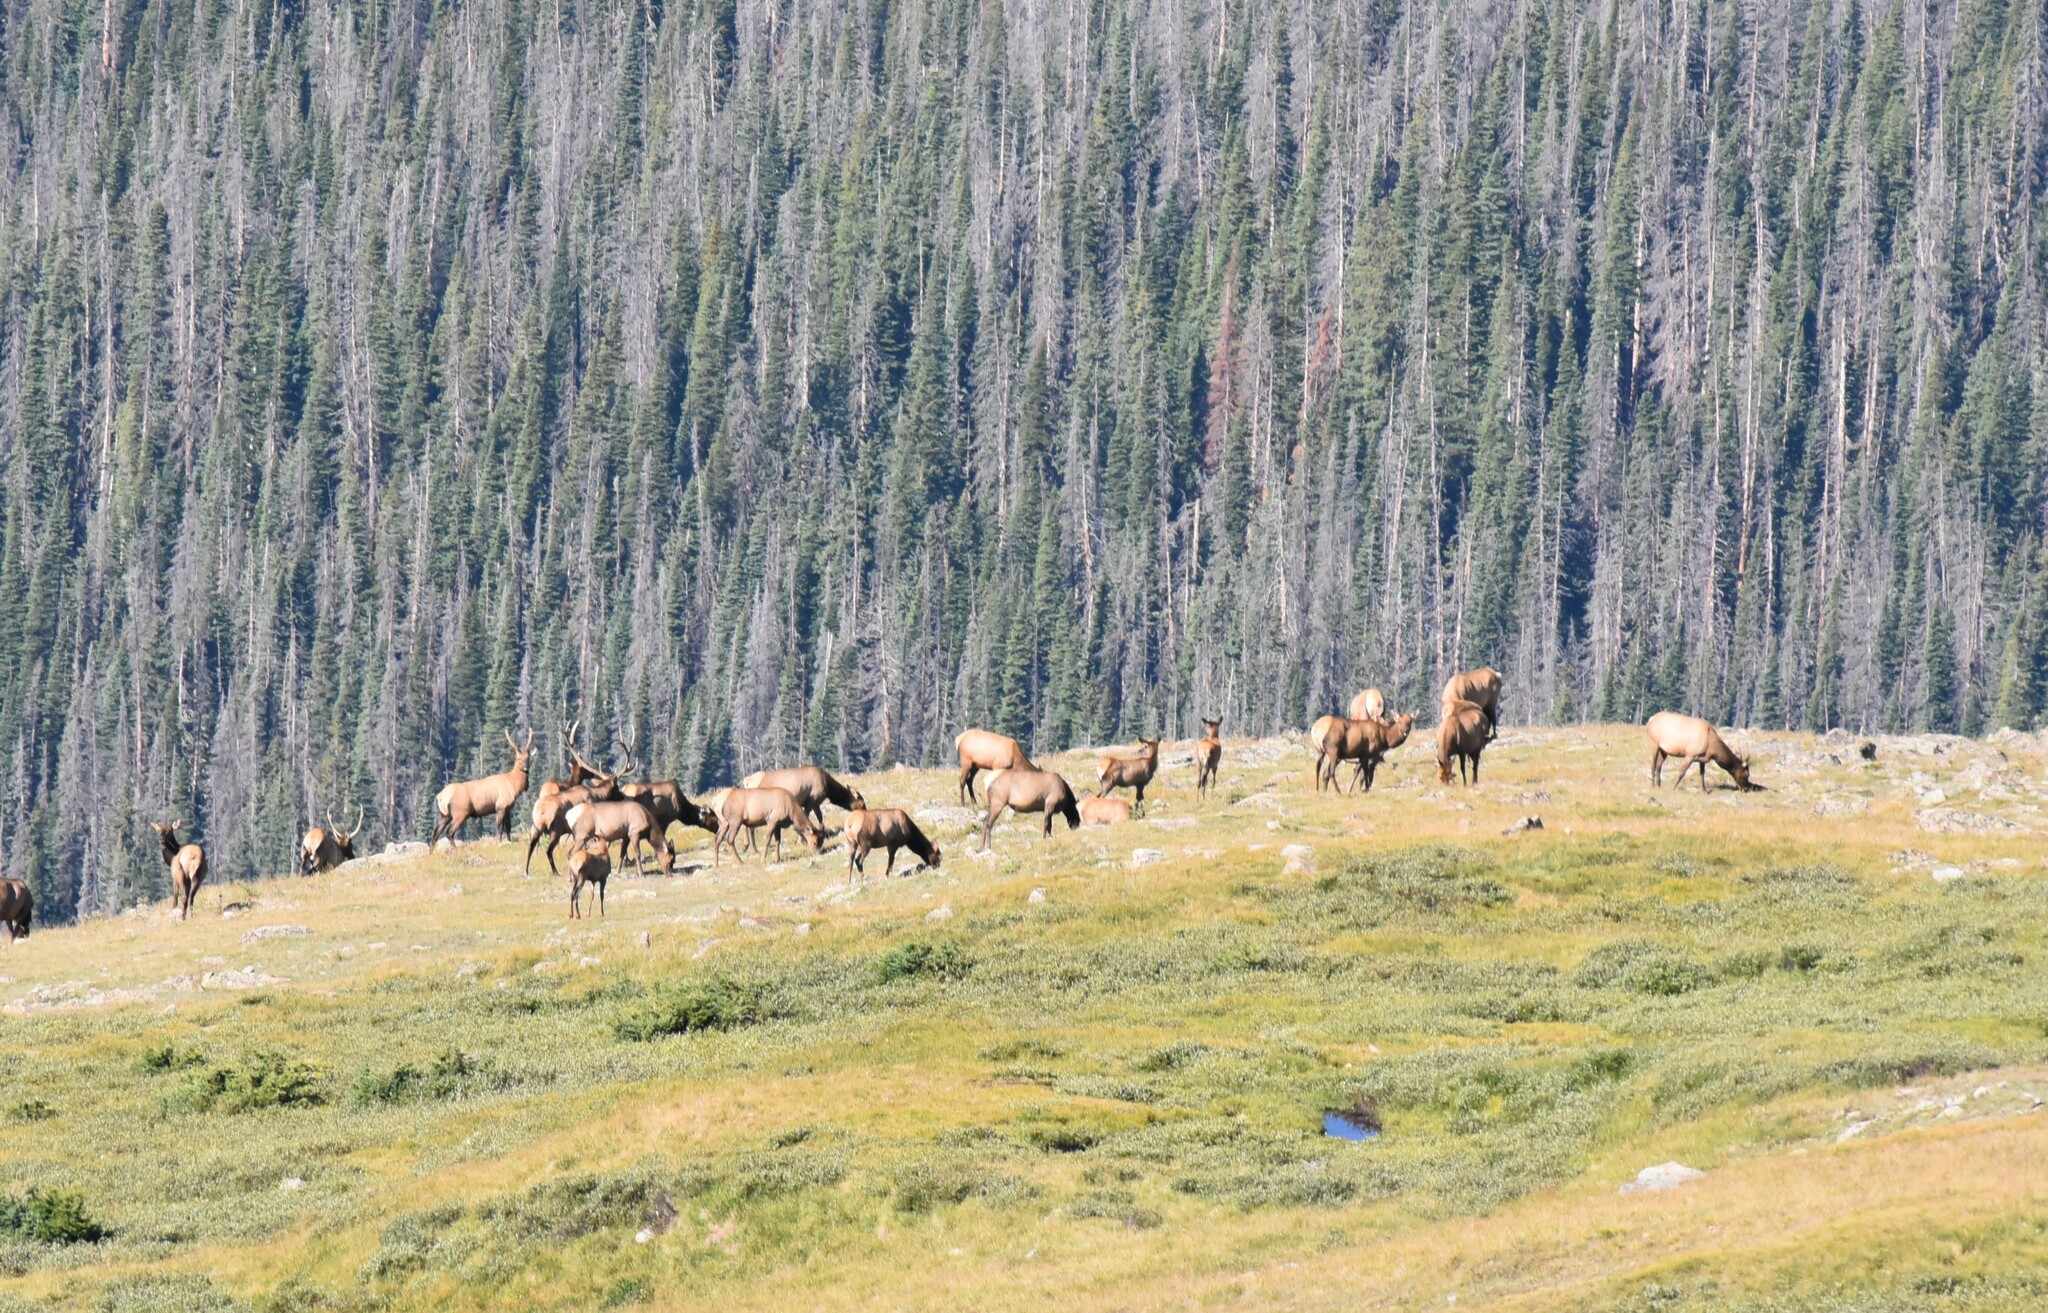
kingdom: Animalia
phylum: Chordata
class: Mammalia
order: Artiodactyla
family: Cervidae
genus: Cervus
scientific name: Cervus elaphus
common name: Red deer
